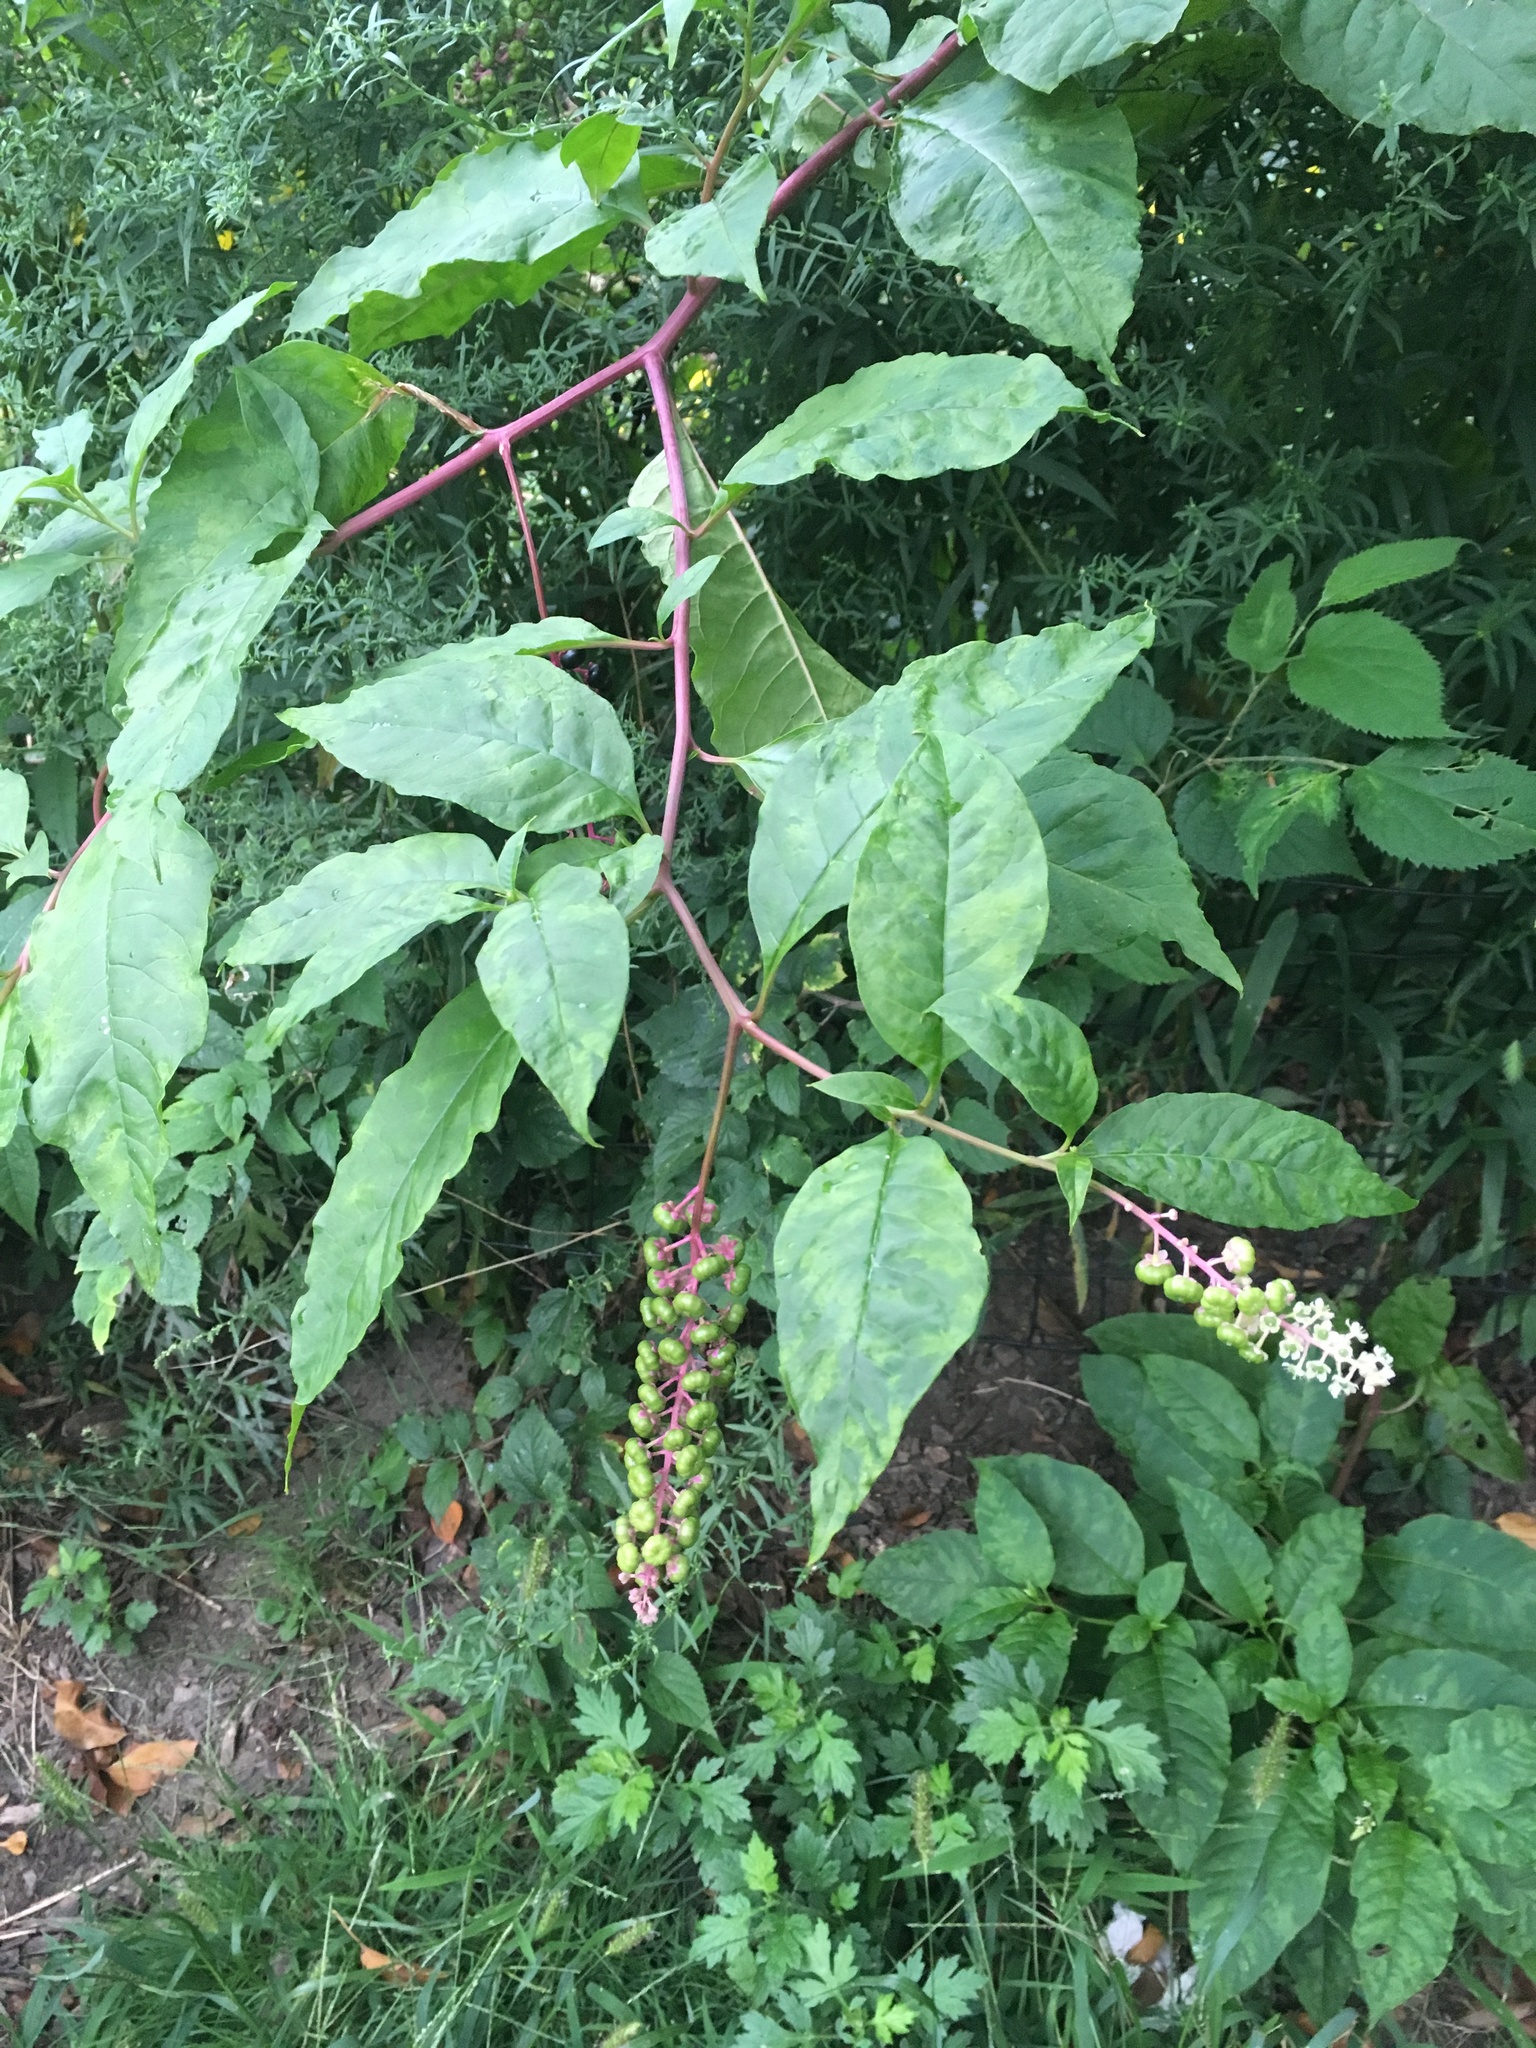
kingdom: Plantae
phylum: Tracheophyta
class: Magnoliopsida
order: Caryophyllales
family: Phytolaccaceae
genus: Phytolacca
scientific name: Phytolacca americana
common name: American pokeweed
